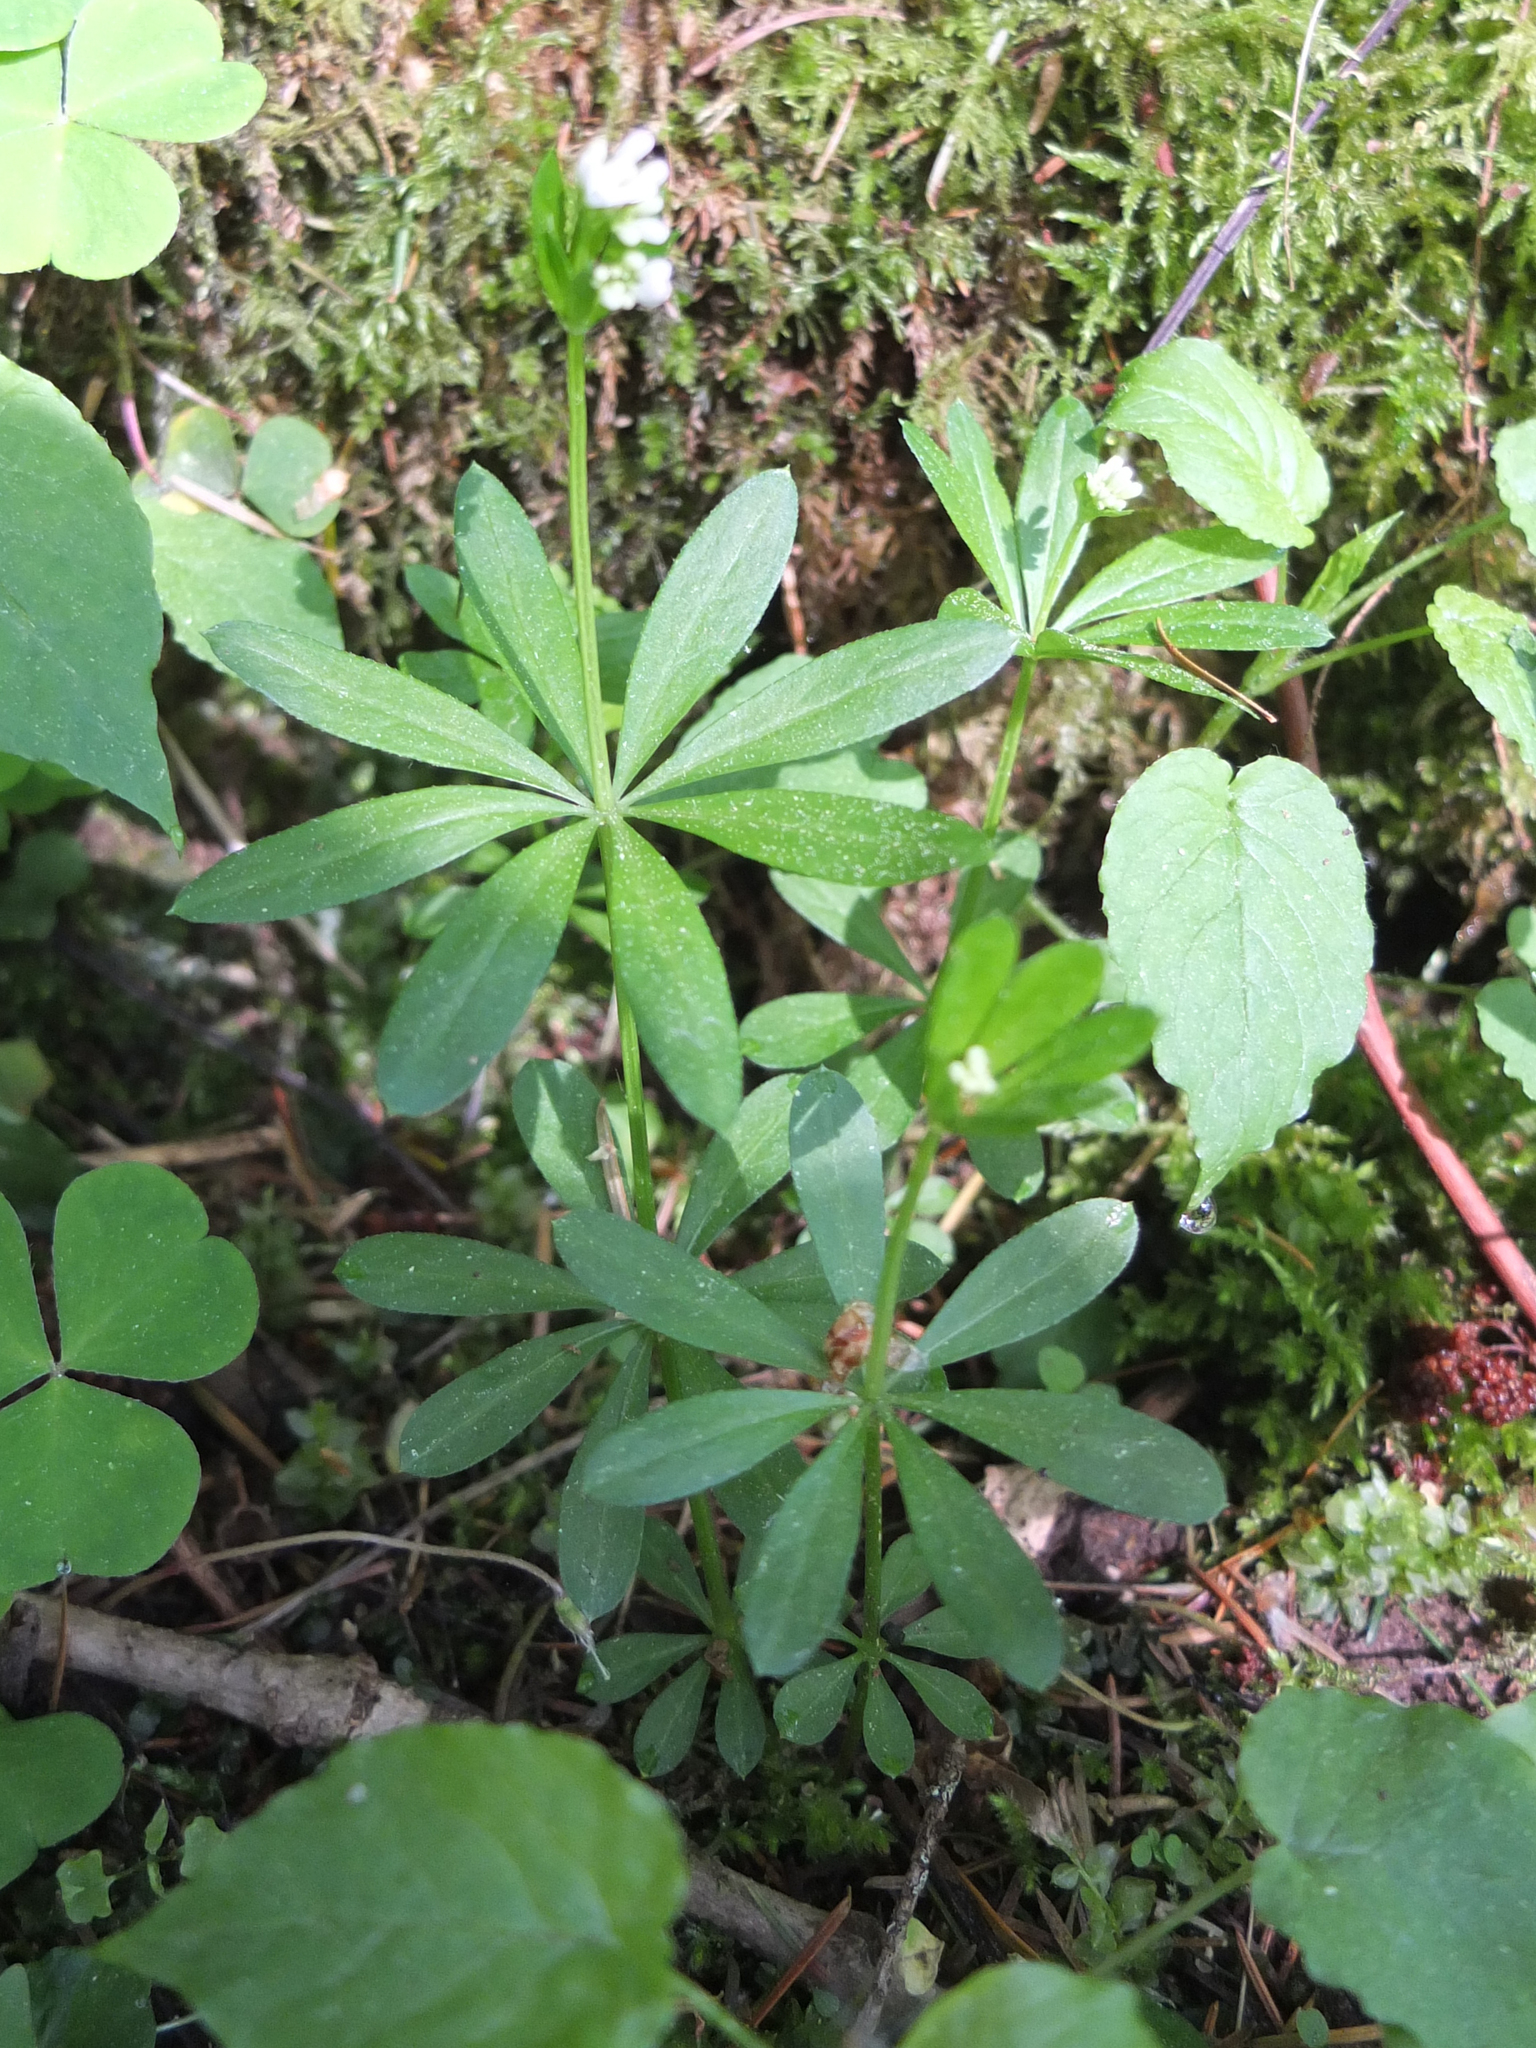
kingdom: Plantae
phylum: Tracheophyta
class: Magnoliopsida
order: Gentianales
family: Rubiaceae
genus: Galium
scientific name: Galium odoratum
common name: Sweet woodruff
